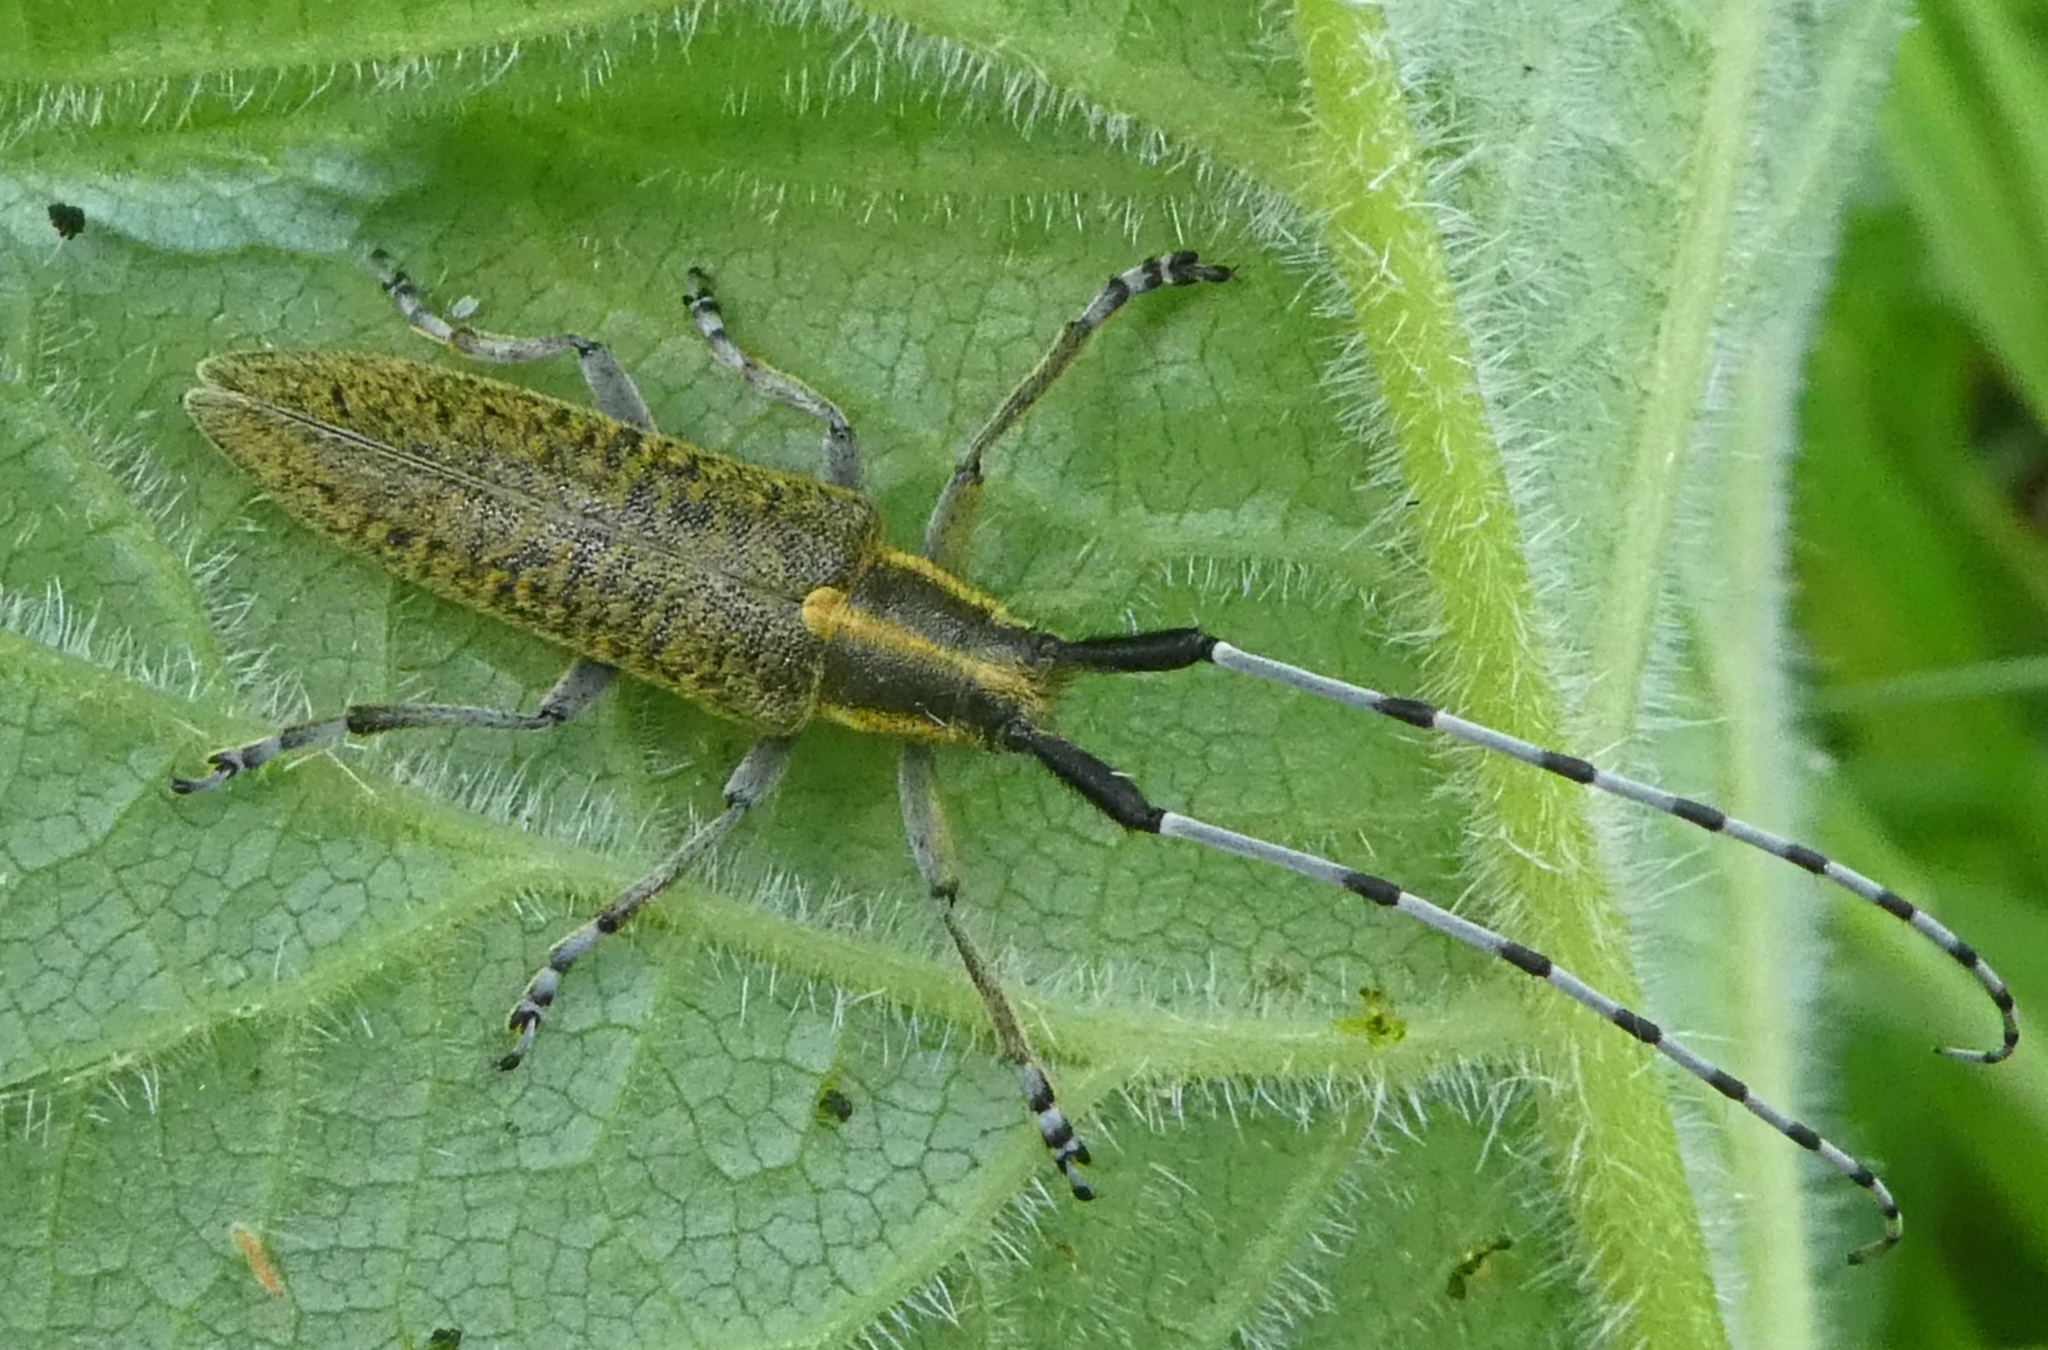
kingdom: Animalia
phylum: Arthropoda
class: Insecta
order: Coleoptera
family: Cerambycidae
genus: Agapanthia
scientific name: Agapanthia villosoviridescens
